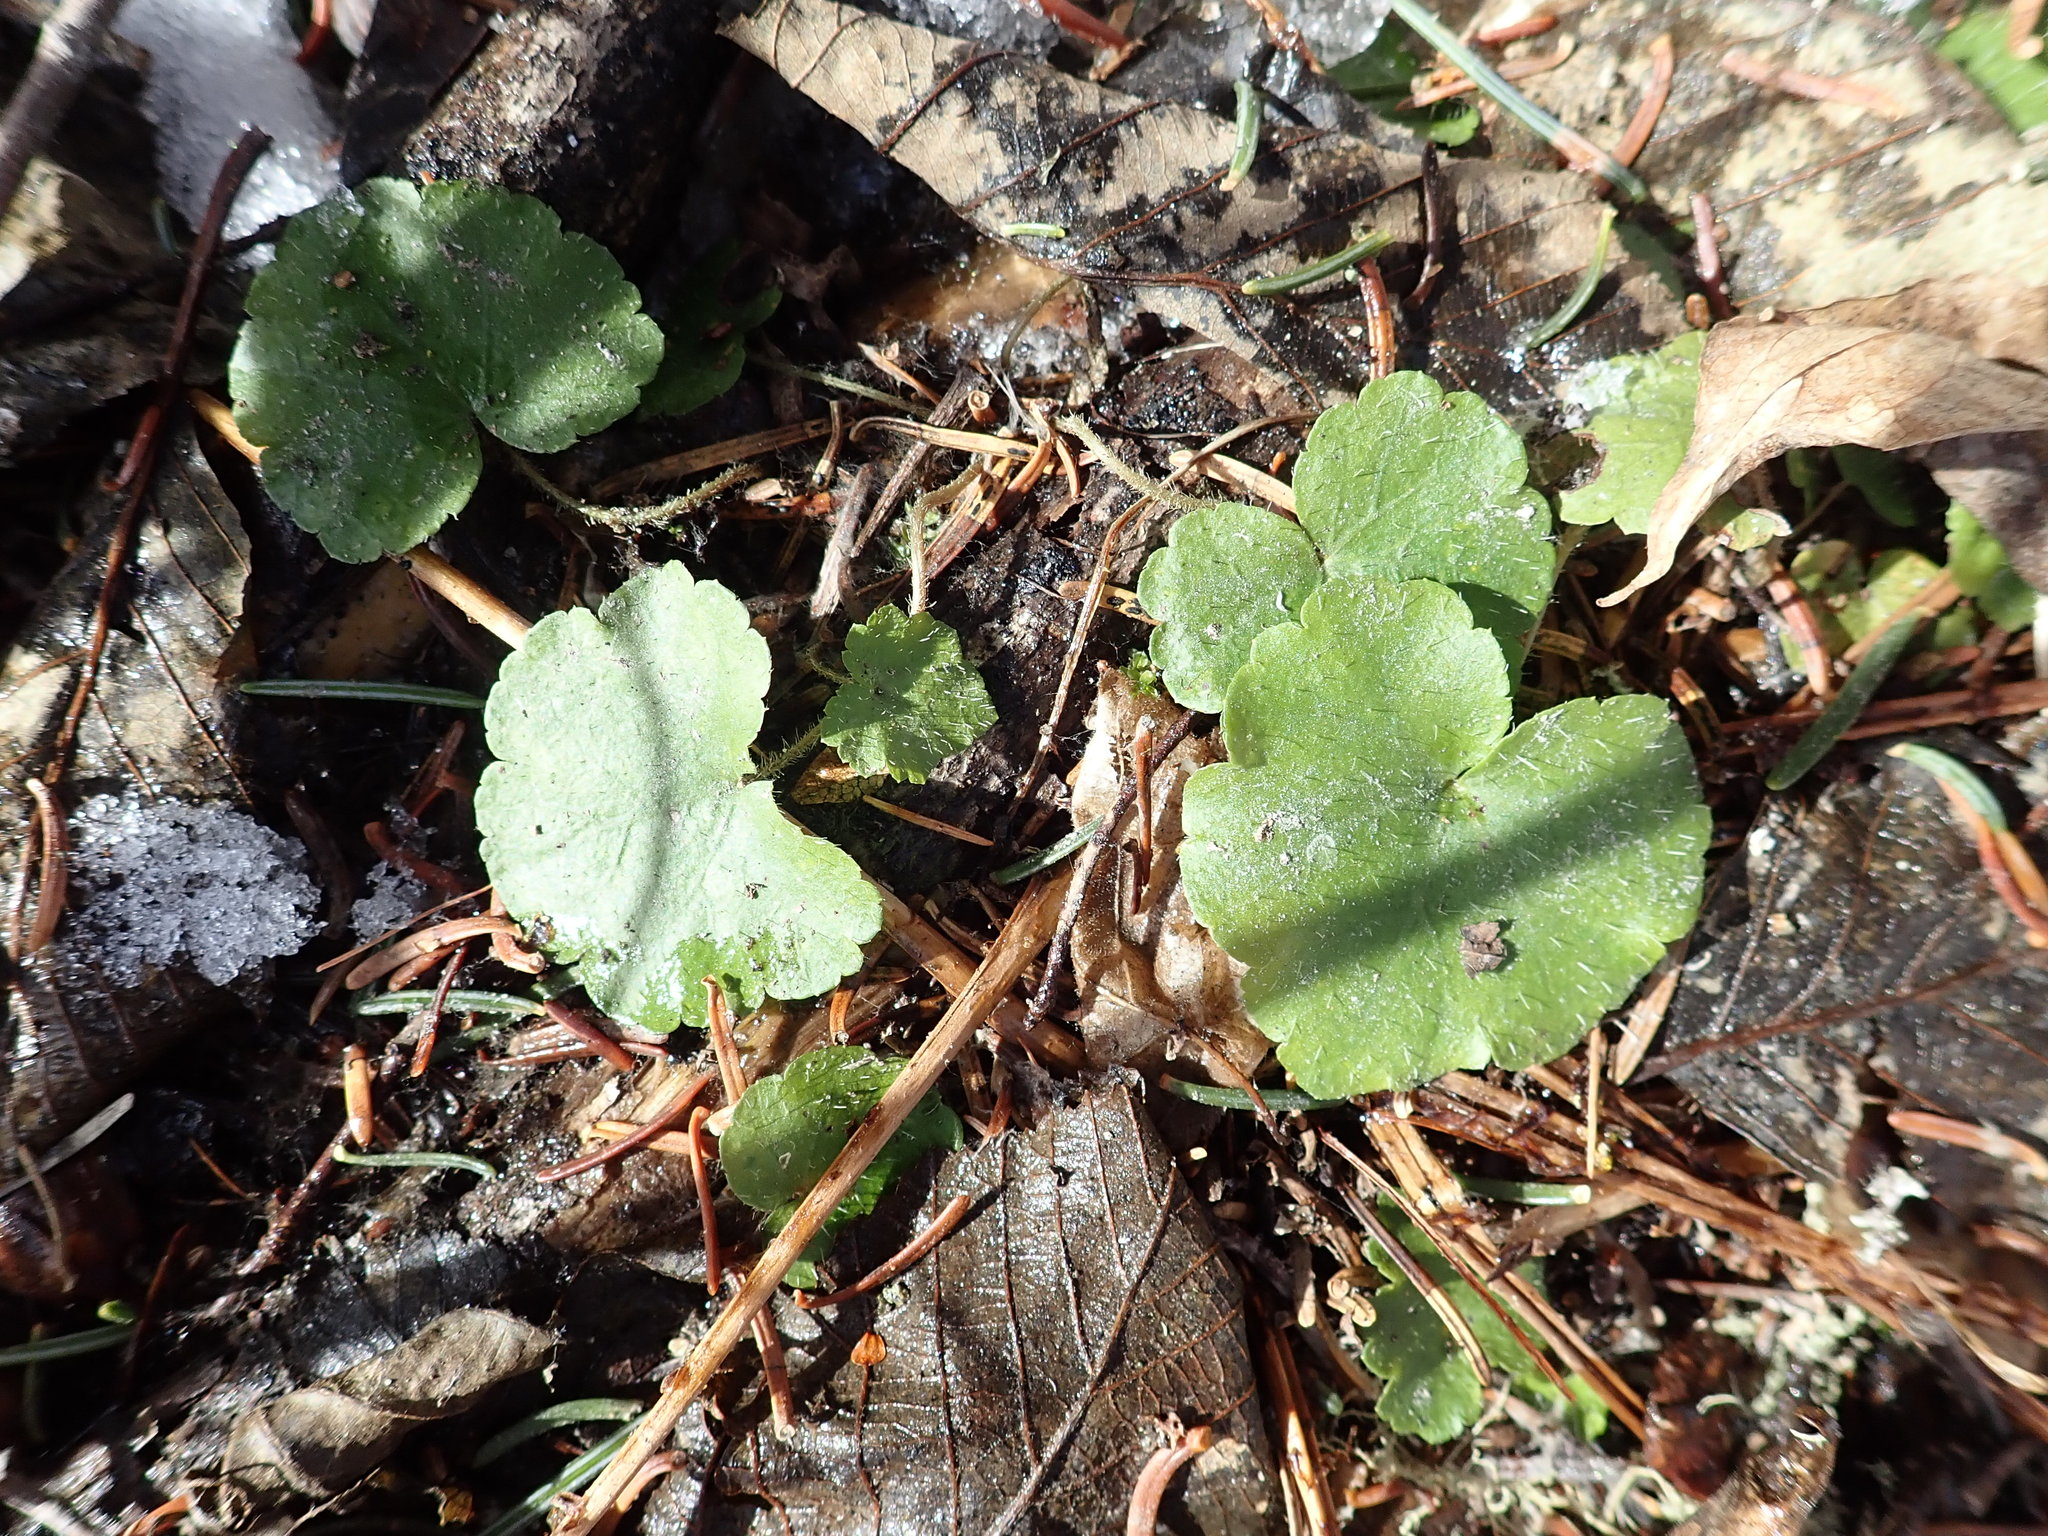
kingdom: Plantae
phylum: Tracheophyta
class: Magnoliopsida
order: Saxifragales
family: Saxifragaceae
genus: Mitella
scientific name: Mitella nuda
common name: Bare-stemmed bishop's-cap
